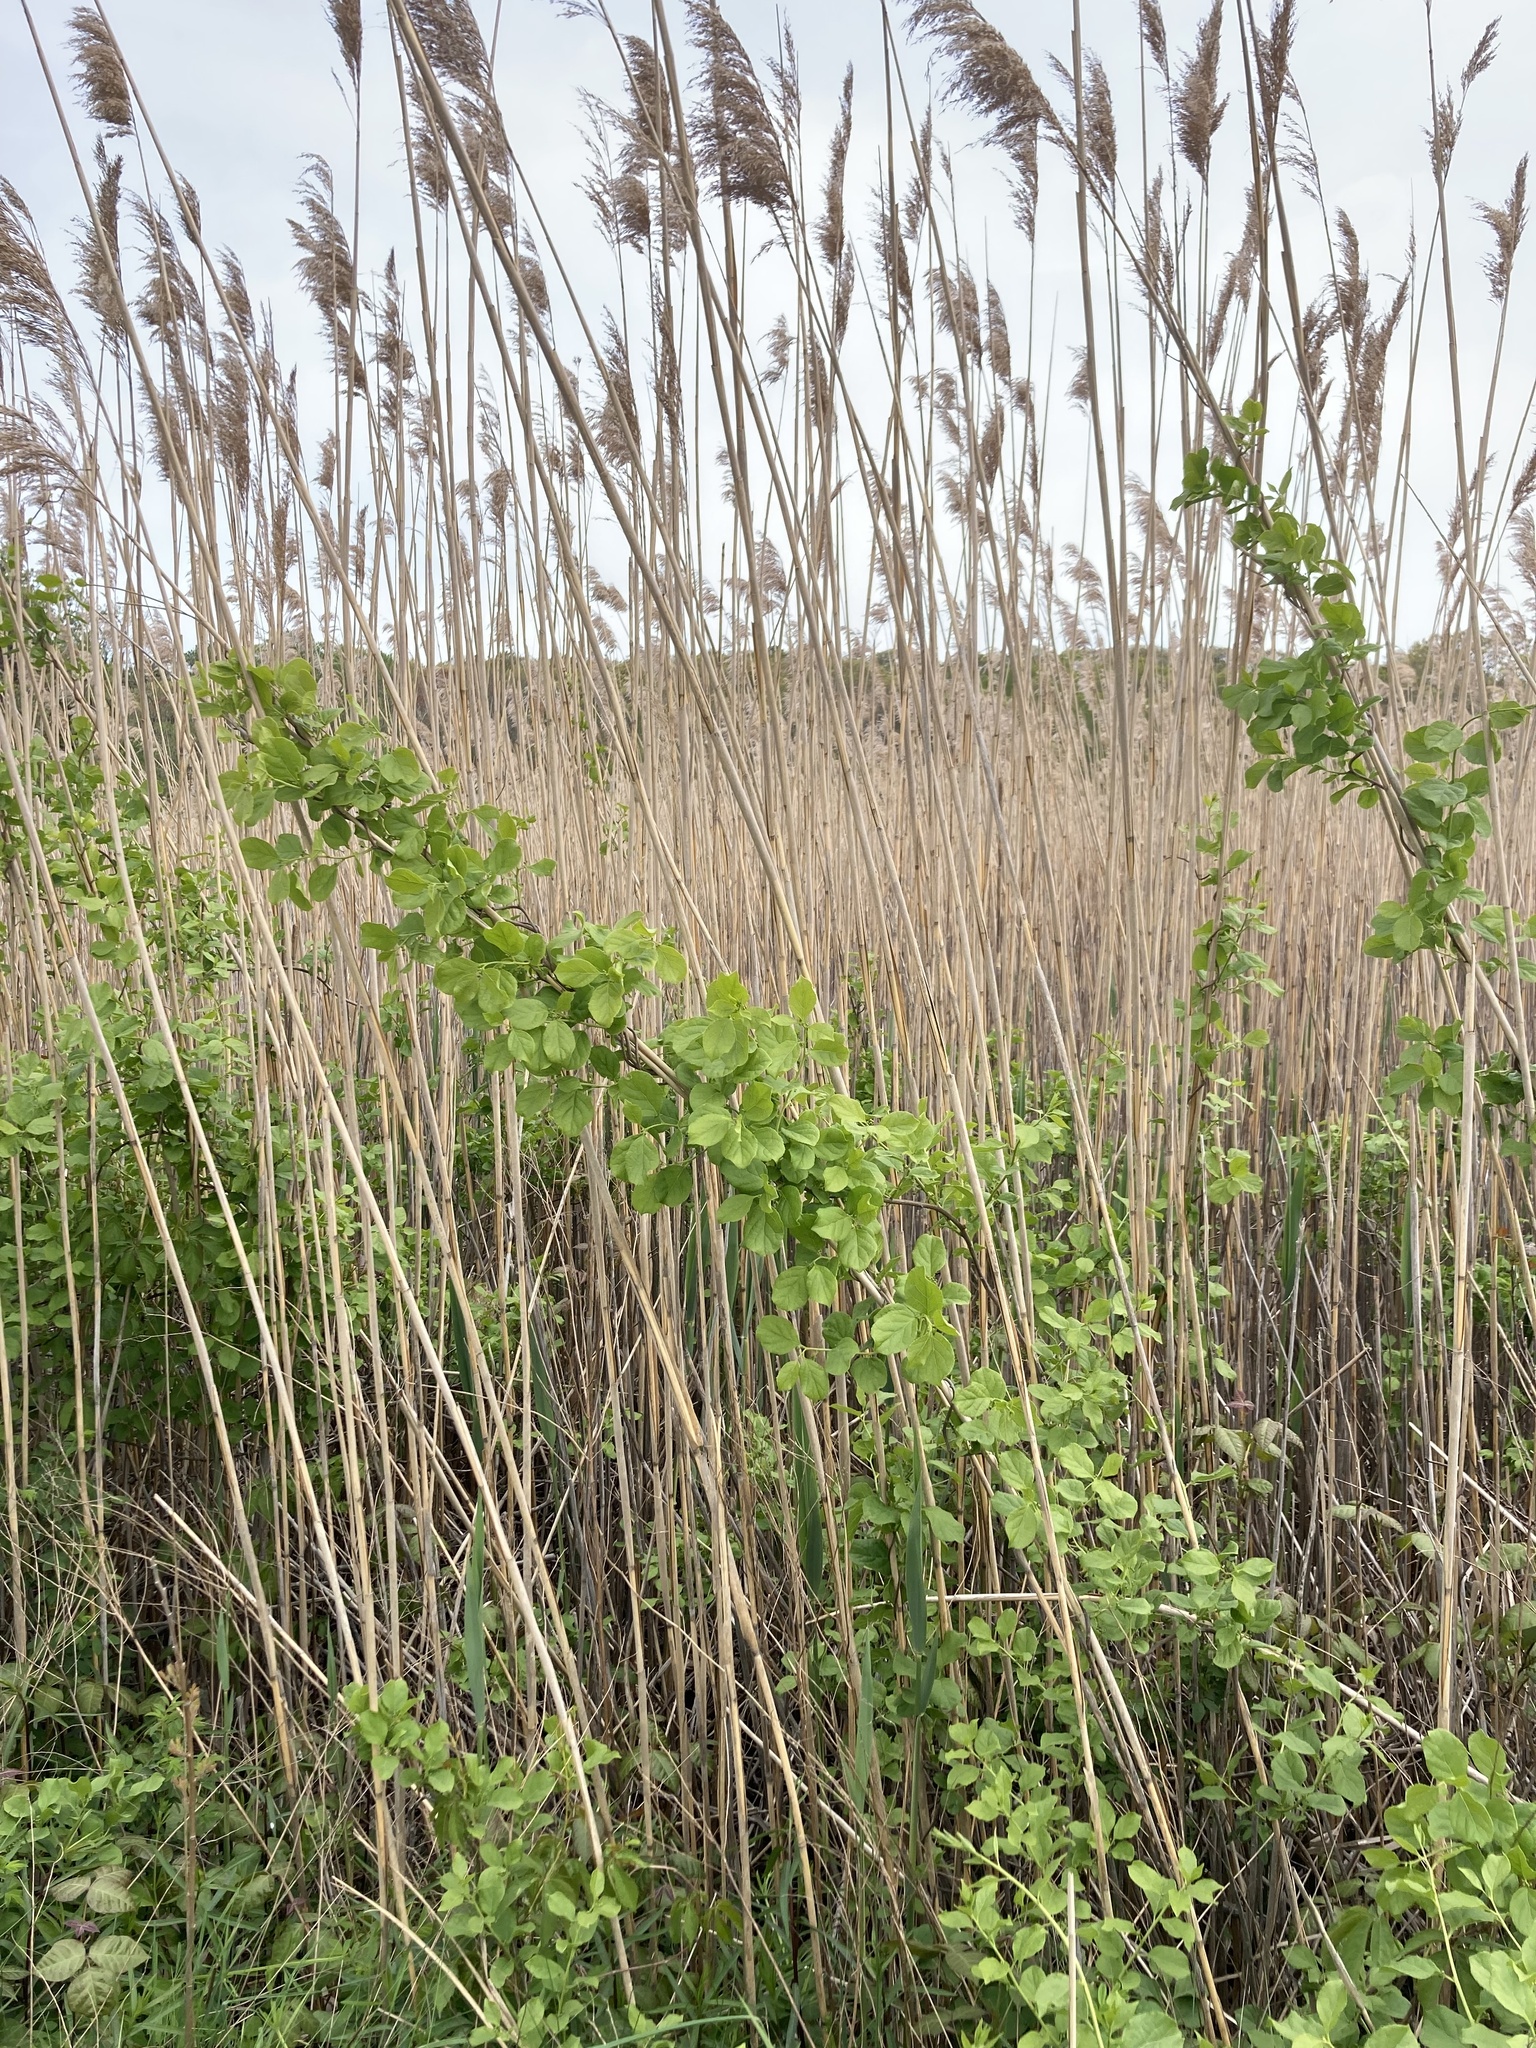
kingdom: Plantae
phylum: Tracheophyta
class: Magnoliopsida
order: Celastrales
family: Celastraceae
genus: Celastrus
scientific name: Celastrus orbiculatus
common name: Oriental bittersweet
